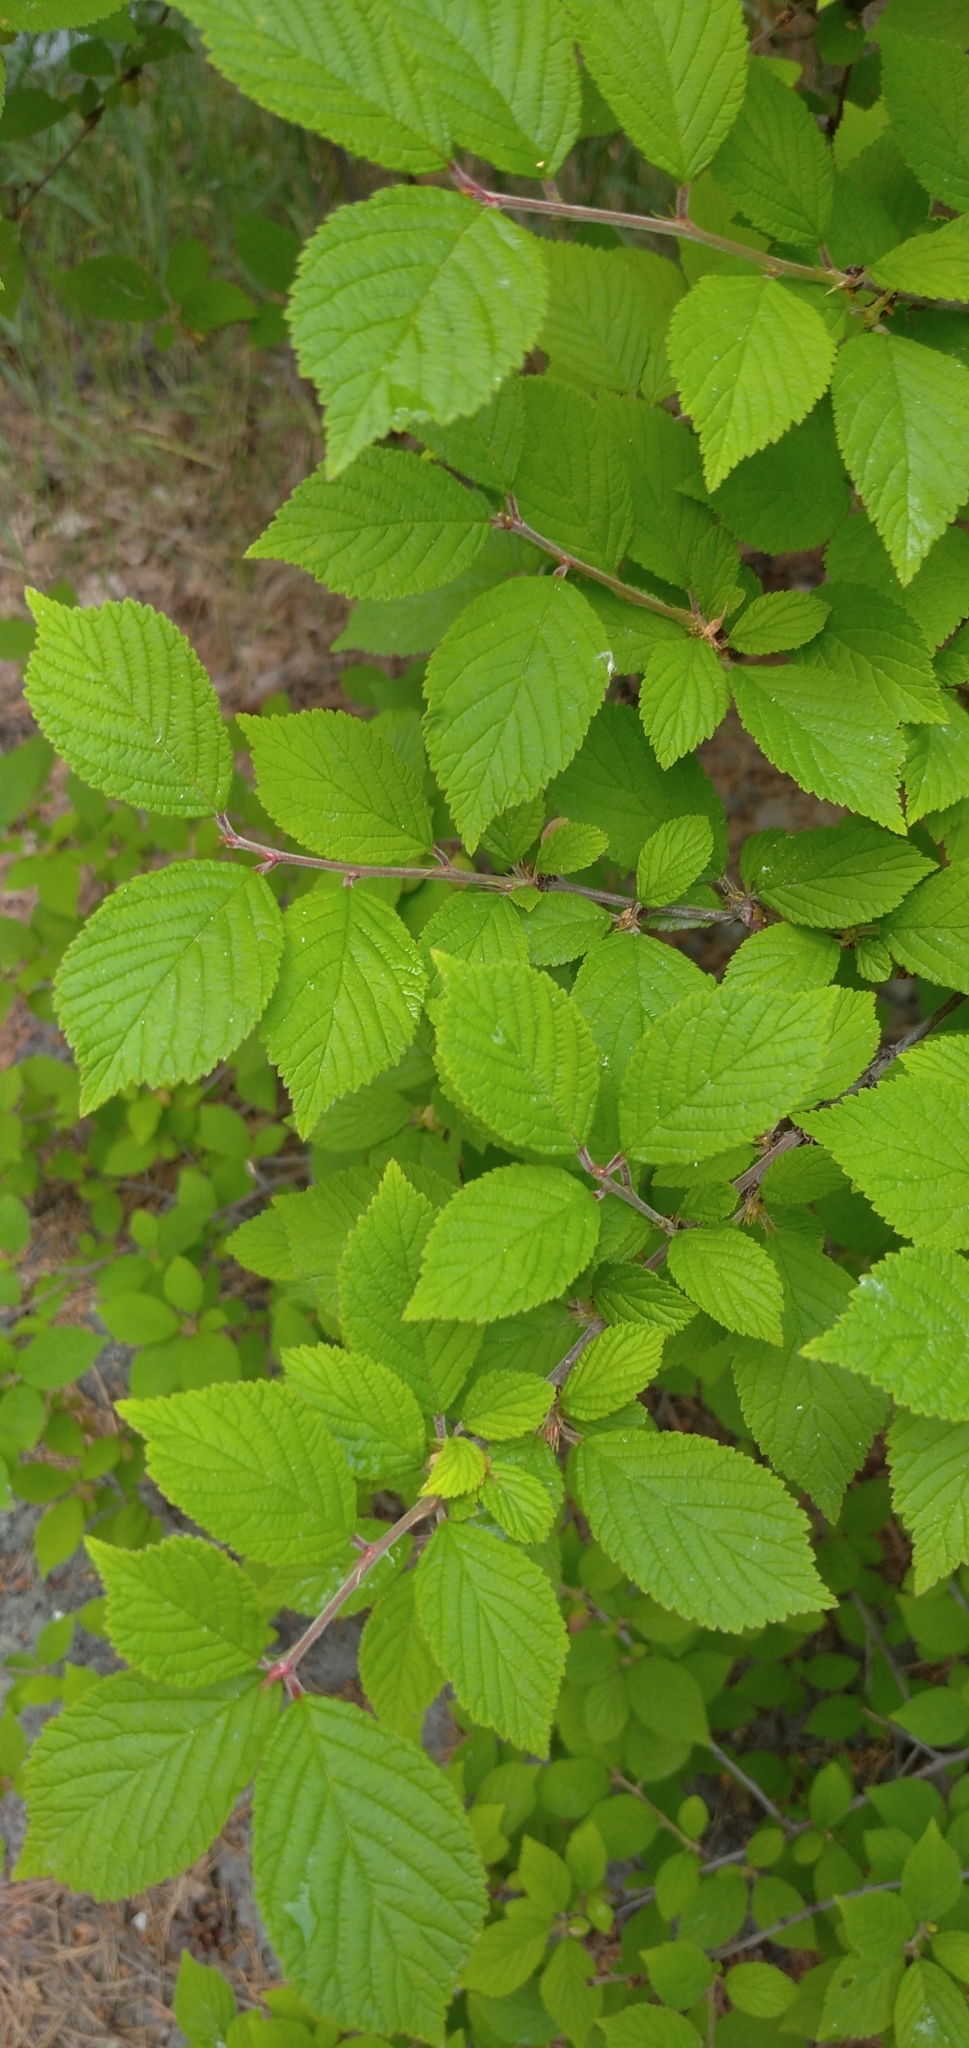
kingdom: Plantae
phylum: Tracheophyta
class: Magnoliopsida
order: Rosales
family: Rosaceae
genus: Prunus
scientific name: Prunus tomentosa
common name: Nanking cherry
